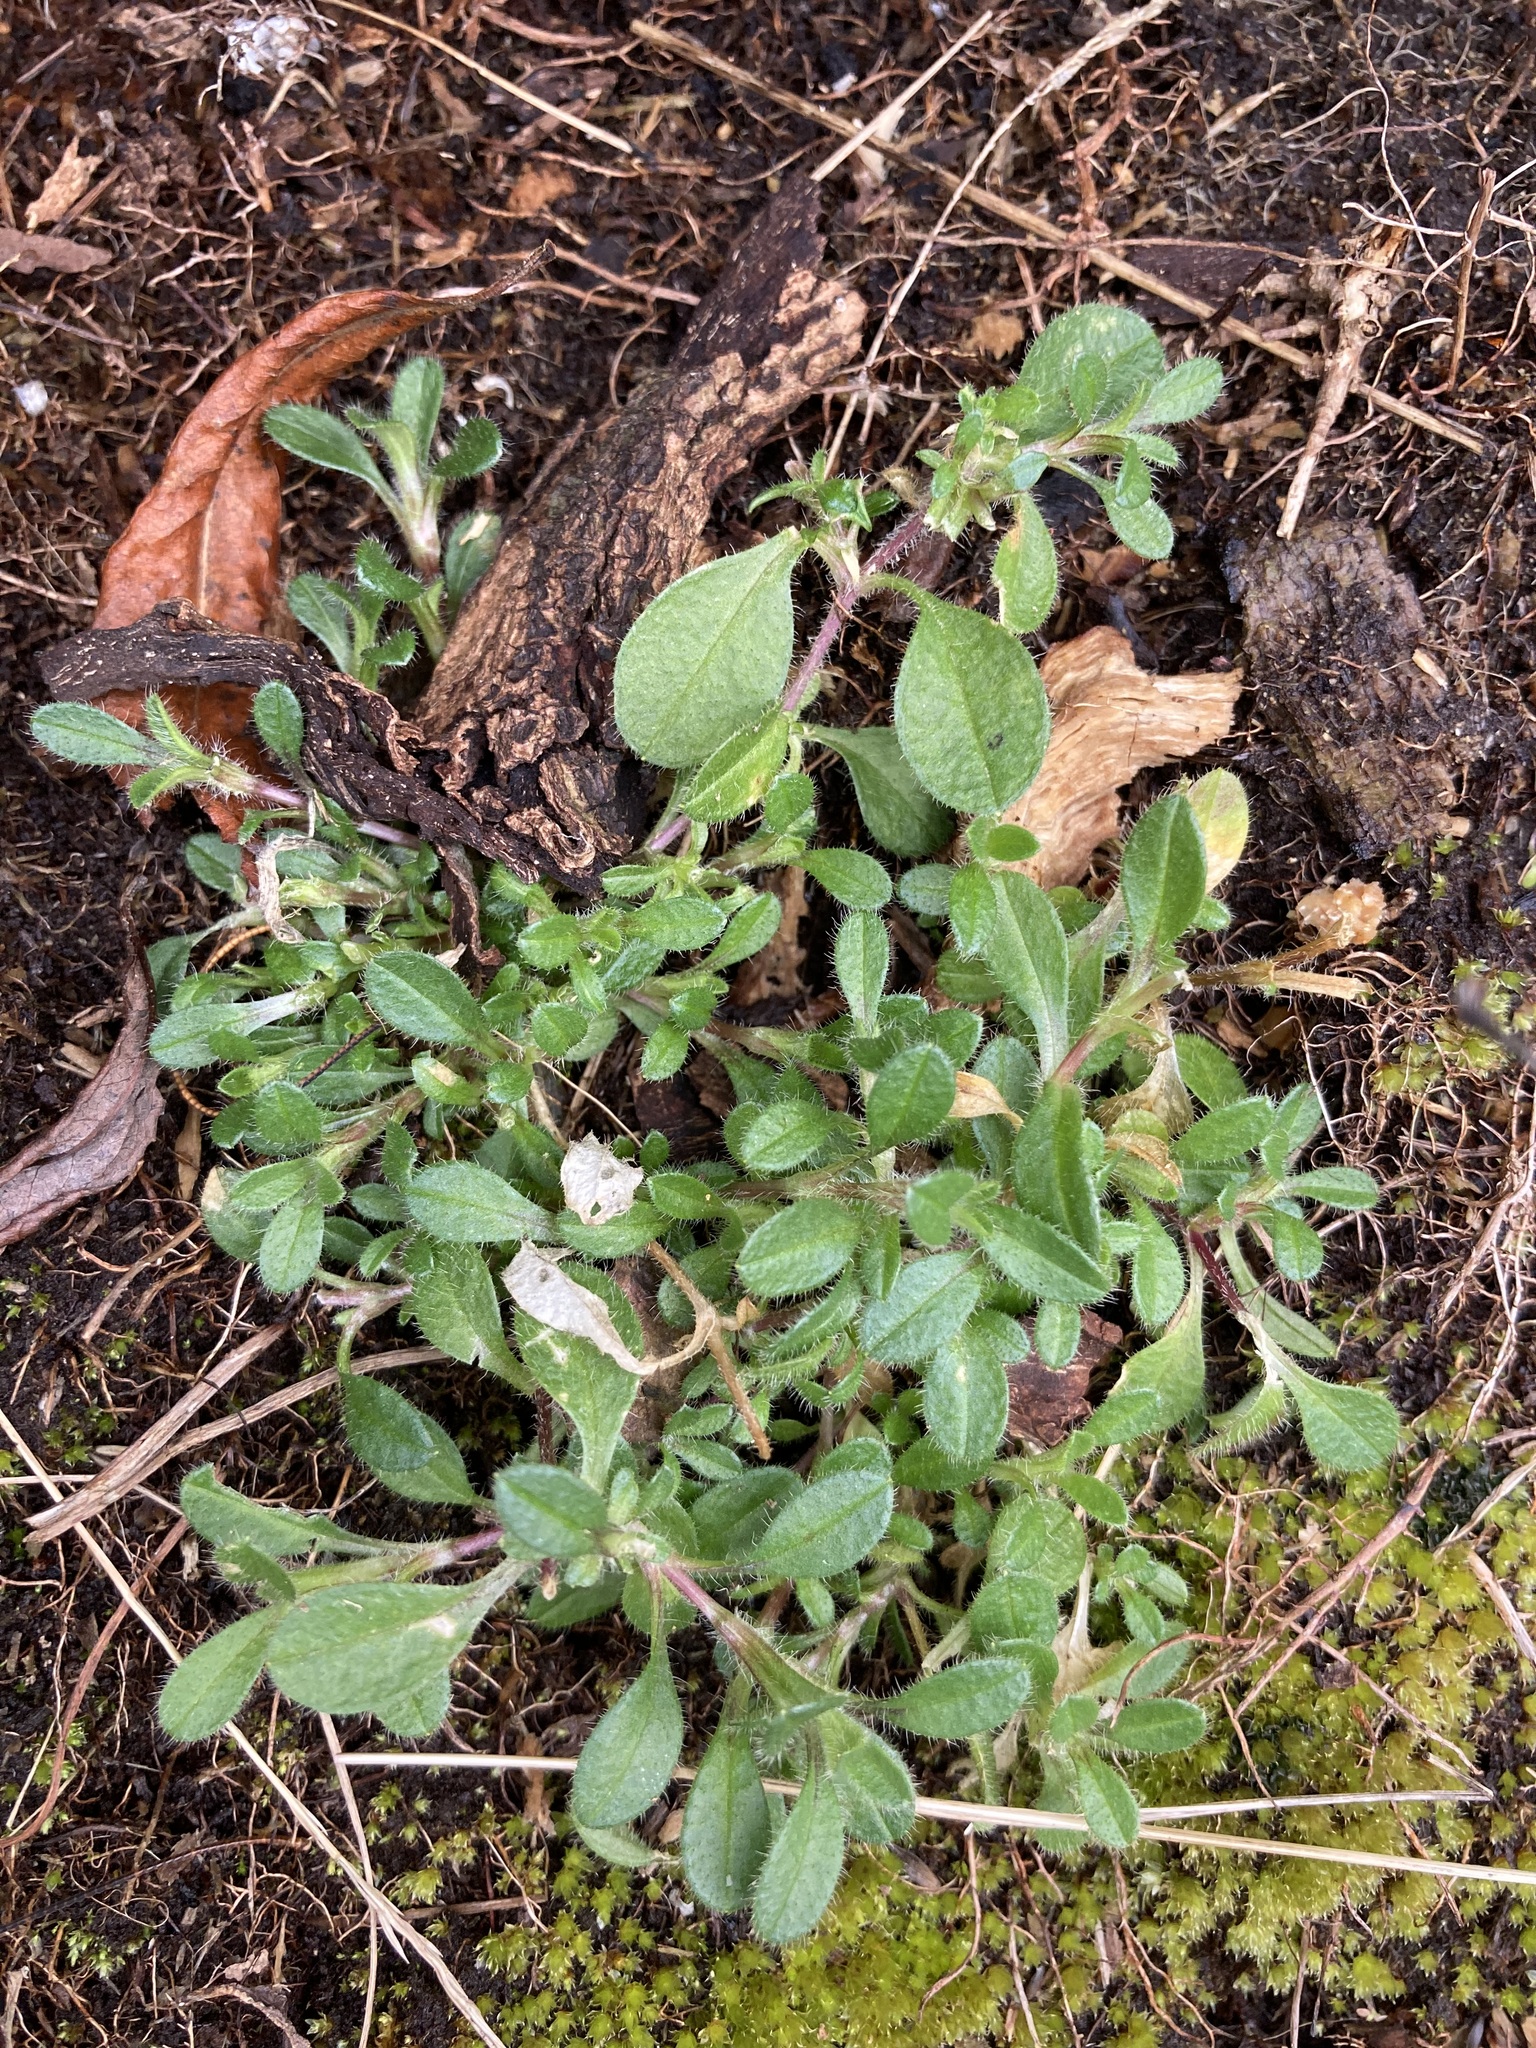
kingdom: Plantae
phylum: Tracheophyta
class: Magnoliopsida
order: Caryophyllales
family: Caryophyllaceae
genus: Cerastium
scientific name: Cerastium fontanum
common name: Common mouse-ear
